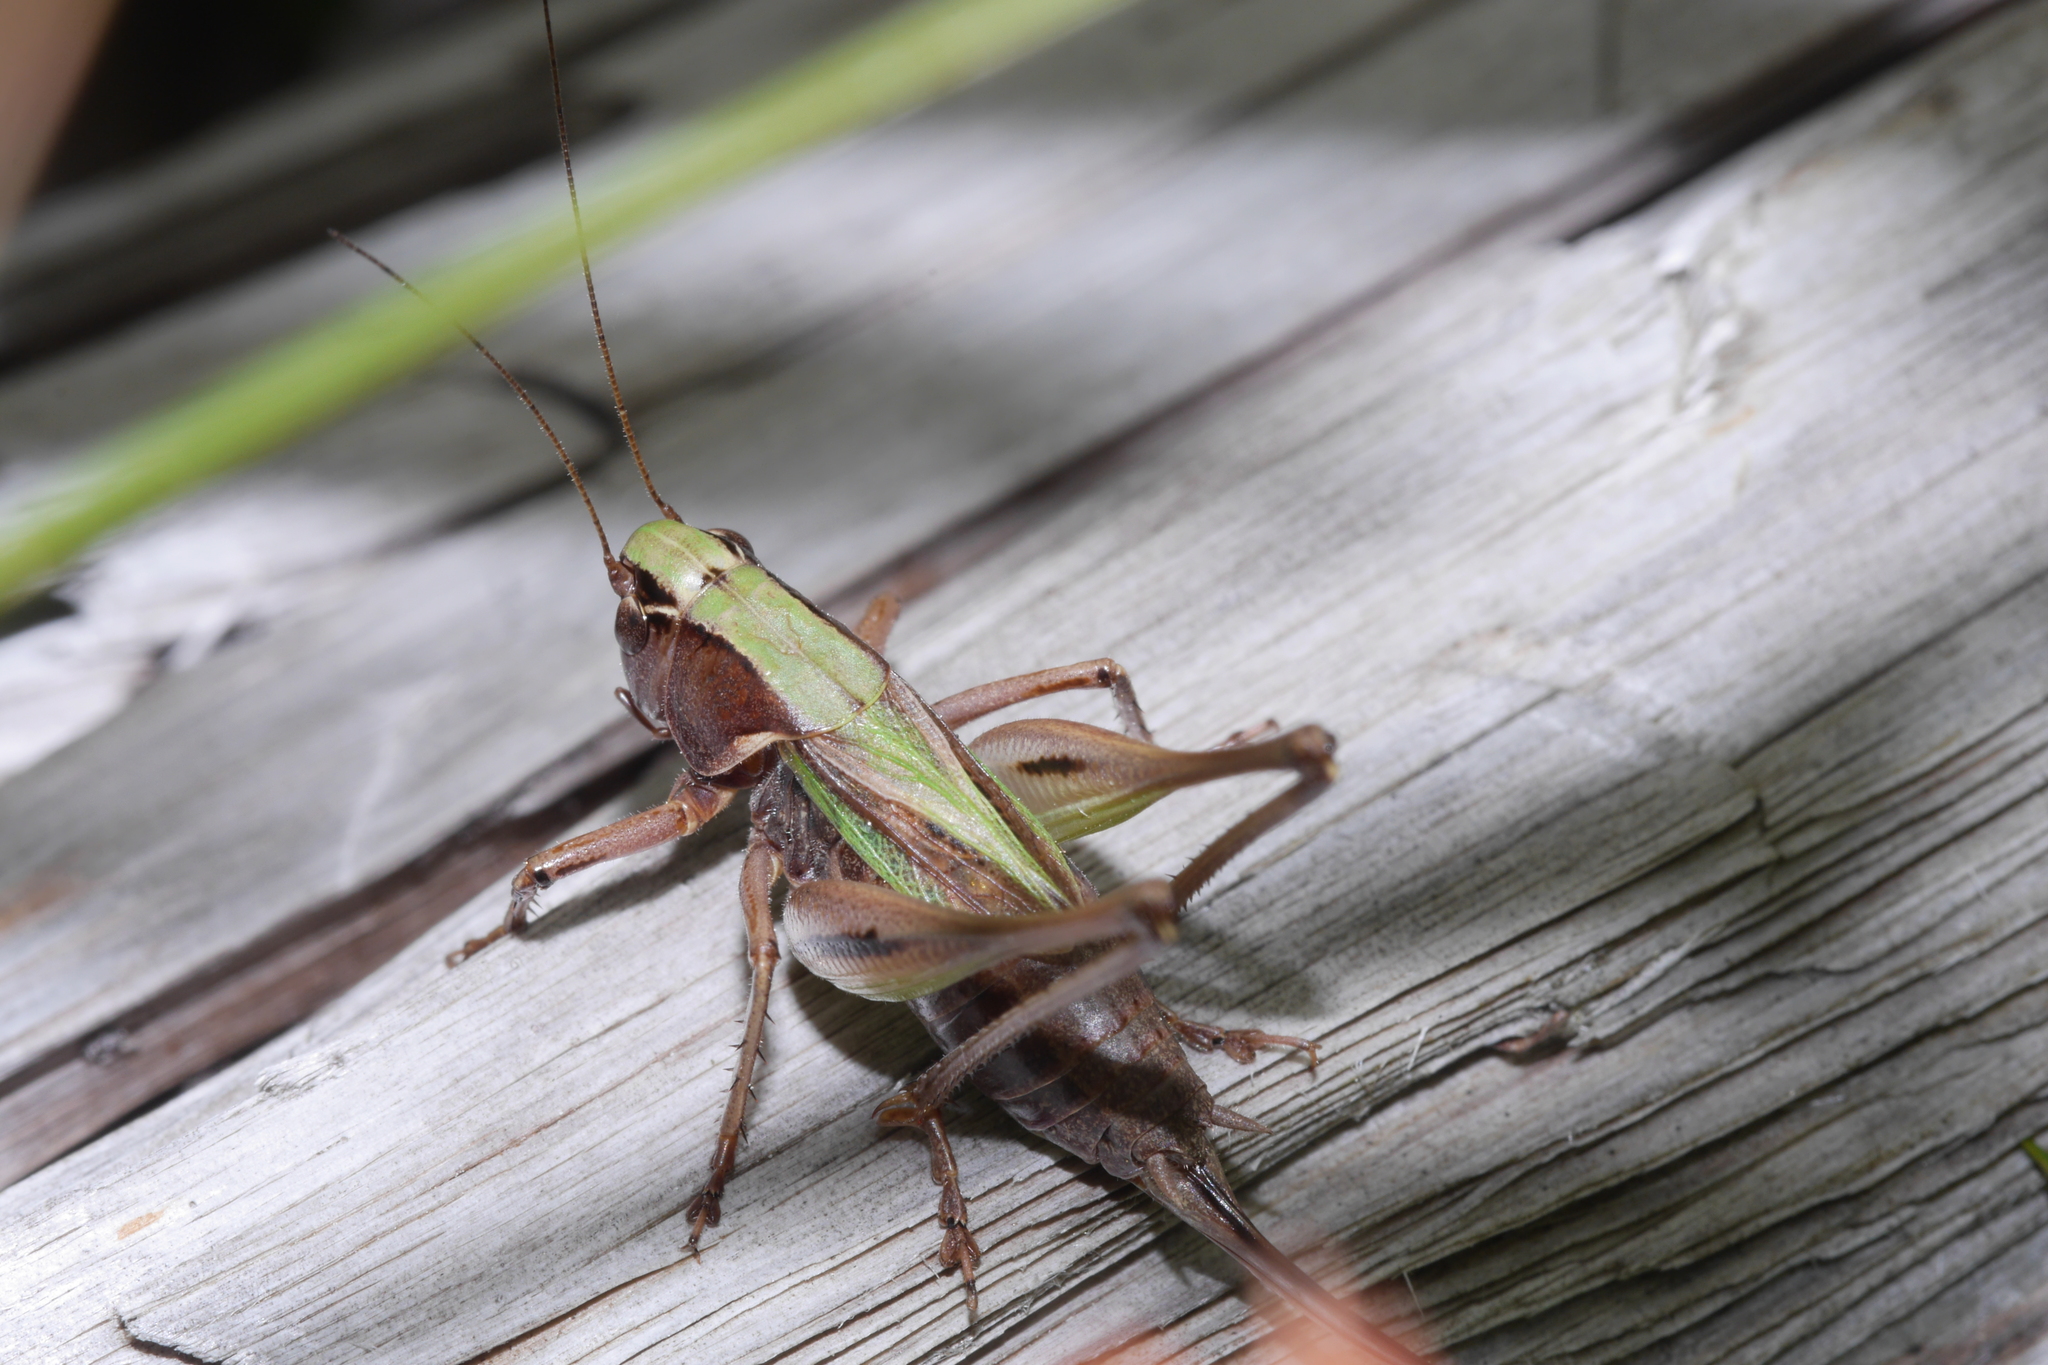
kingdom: Animalia
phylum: Arthropoda
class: Insecta
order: Orthoptera
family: Tettigoniidae
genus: Metrioptera
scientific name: Metrioptera brachyptera
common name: Bog bush-cricket
